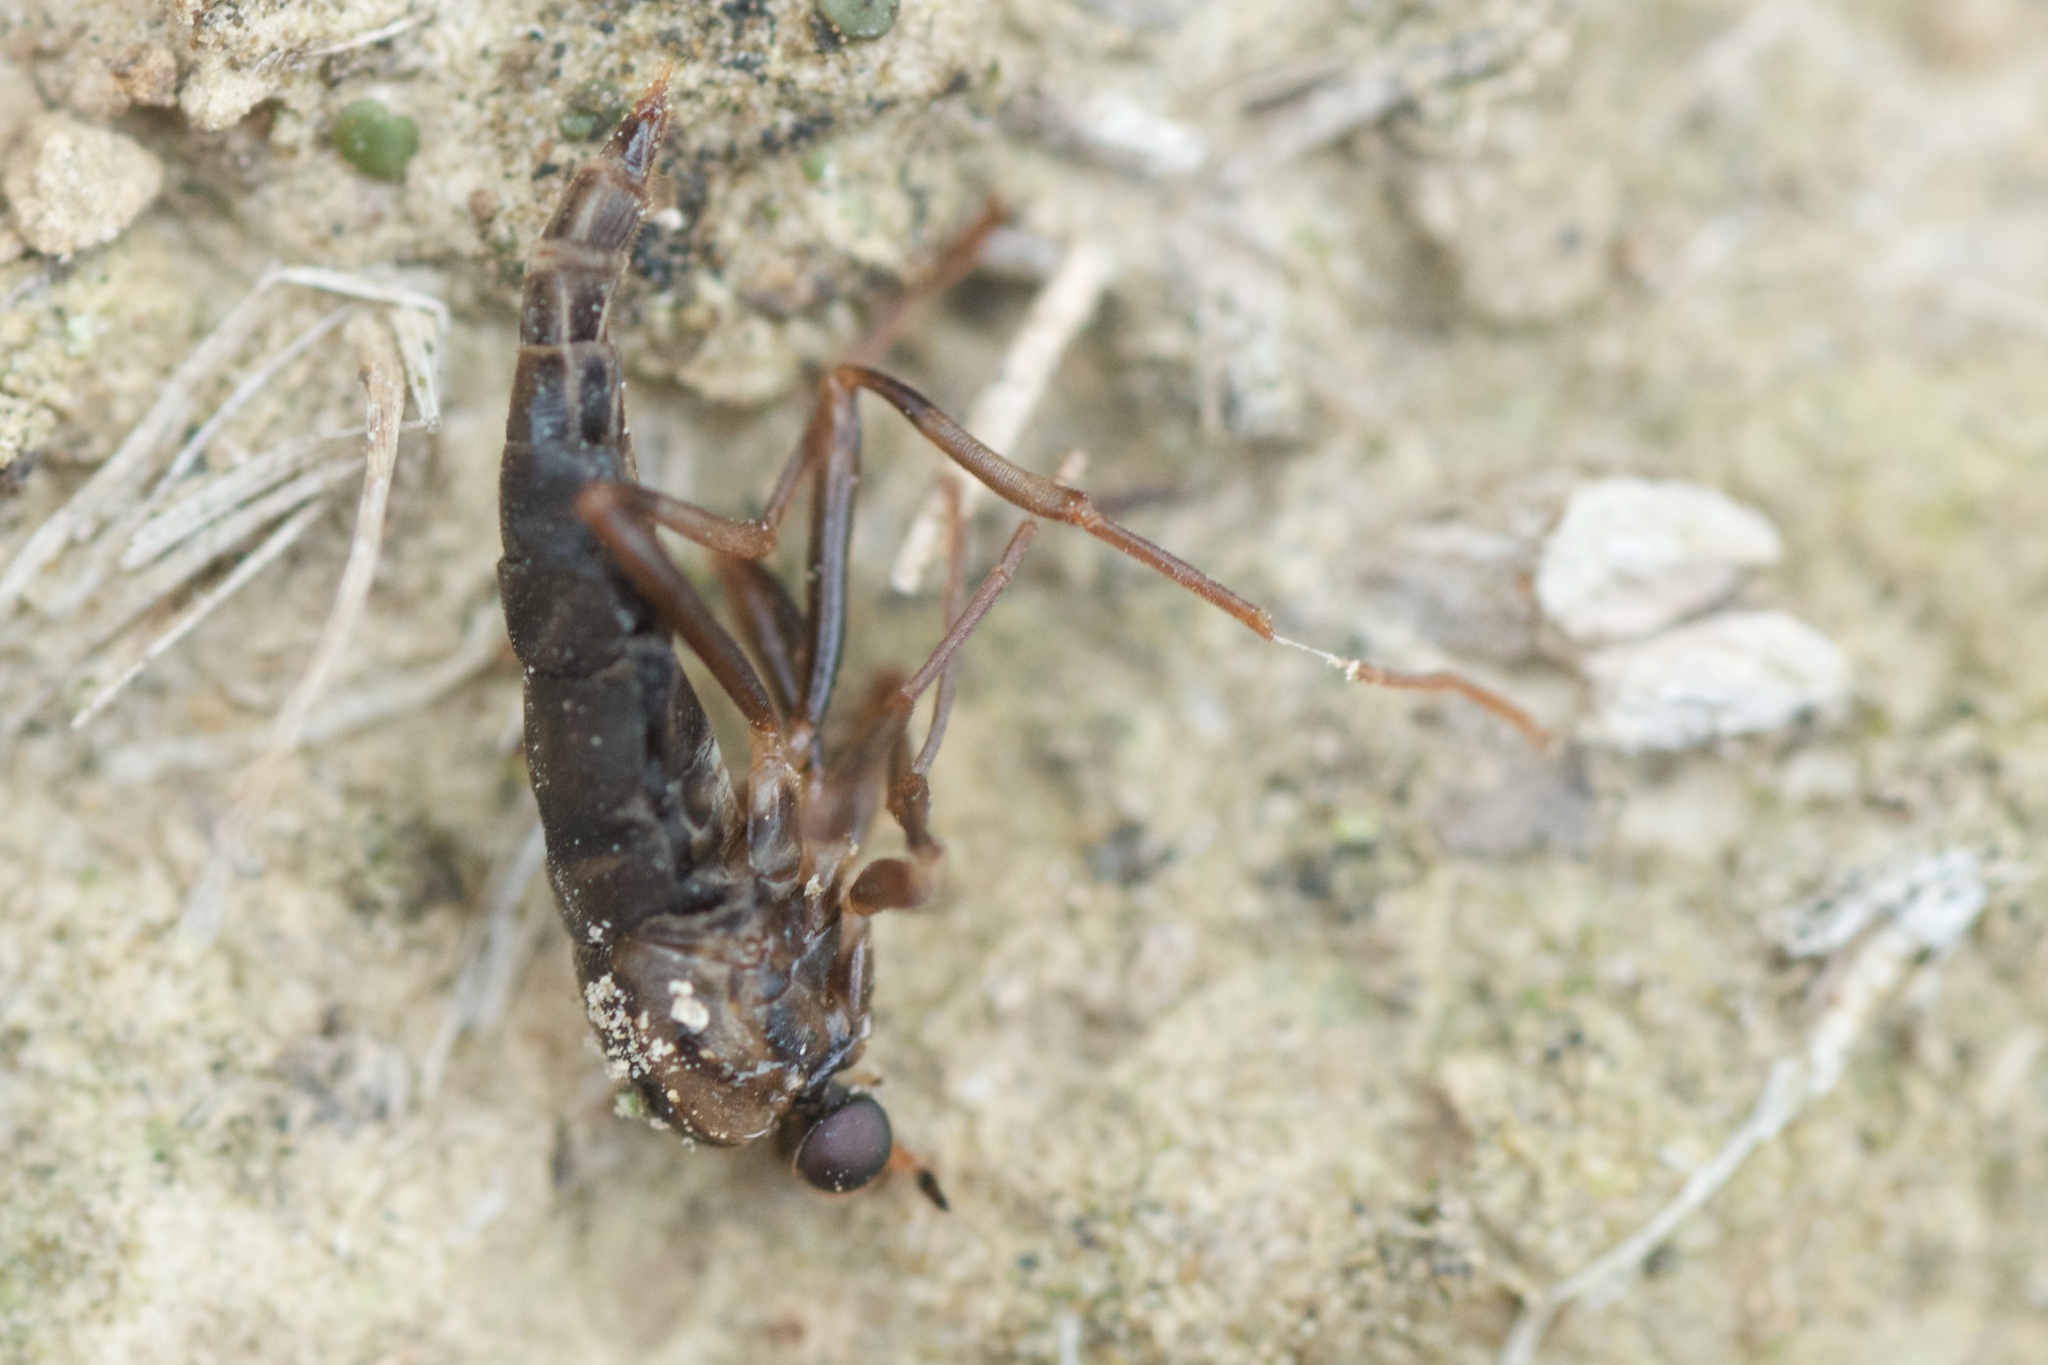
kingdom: Animalia
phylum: Arthropoda
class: Insecta
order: Diptera
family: Stratiomyidae
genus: Boreoides
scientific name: Boreoides tasmaniensis
